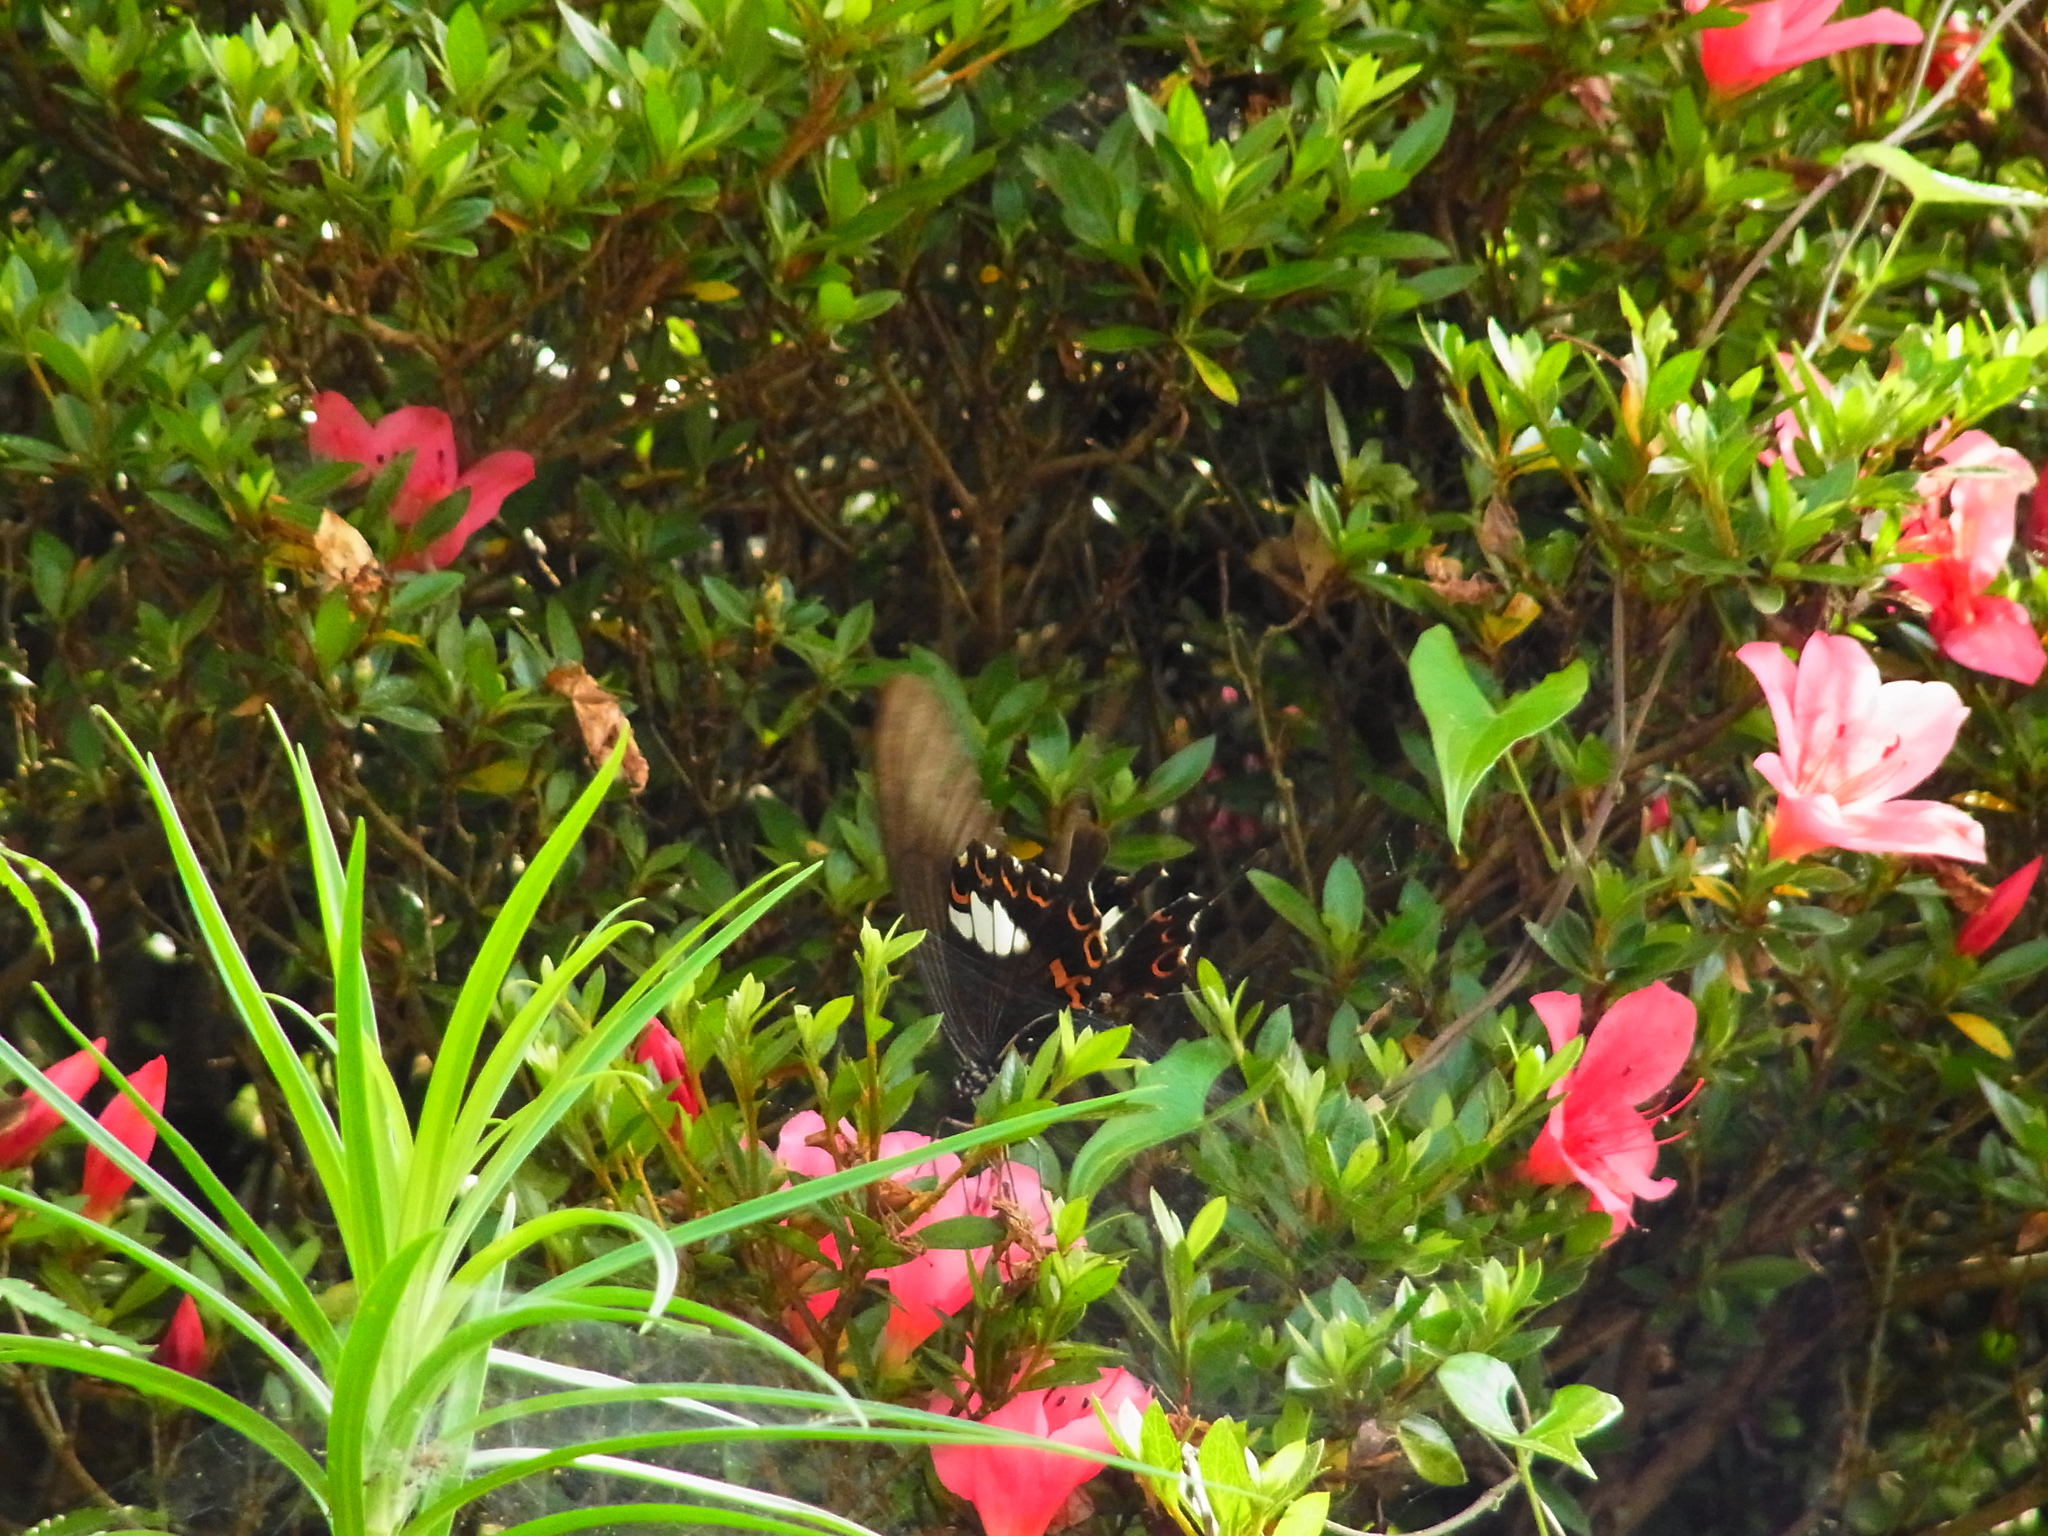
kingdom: Animalia
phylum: Arthropoda
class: Insecta
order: Lepidoptera
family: Papilionidae
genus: Papilio
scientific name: Papilio helenus
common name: Red helen
